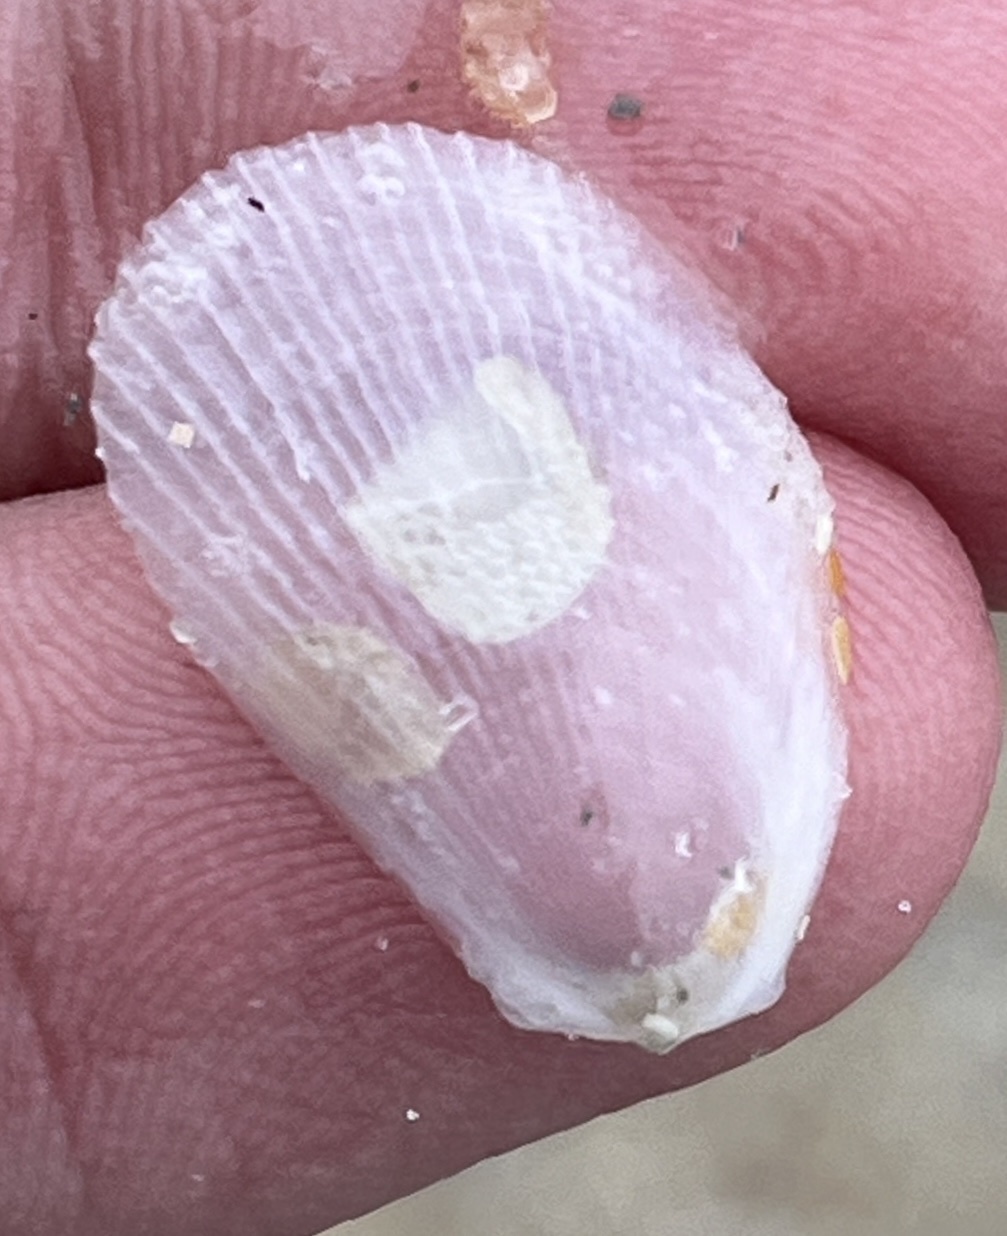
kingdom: Animalia
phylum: Mollusca
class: Bivalvia
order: Limida
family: Limidae
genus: Limaria
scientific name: Limaria pellucida
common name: Antillean fileclam
